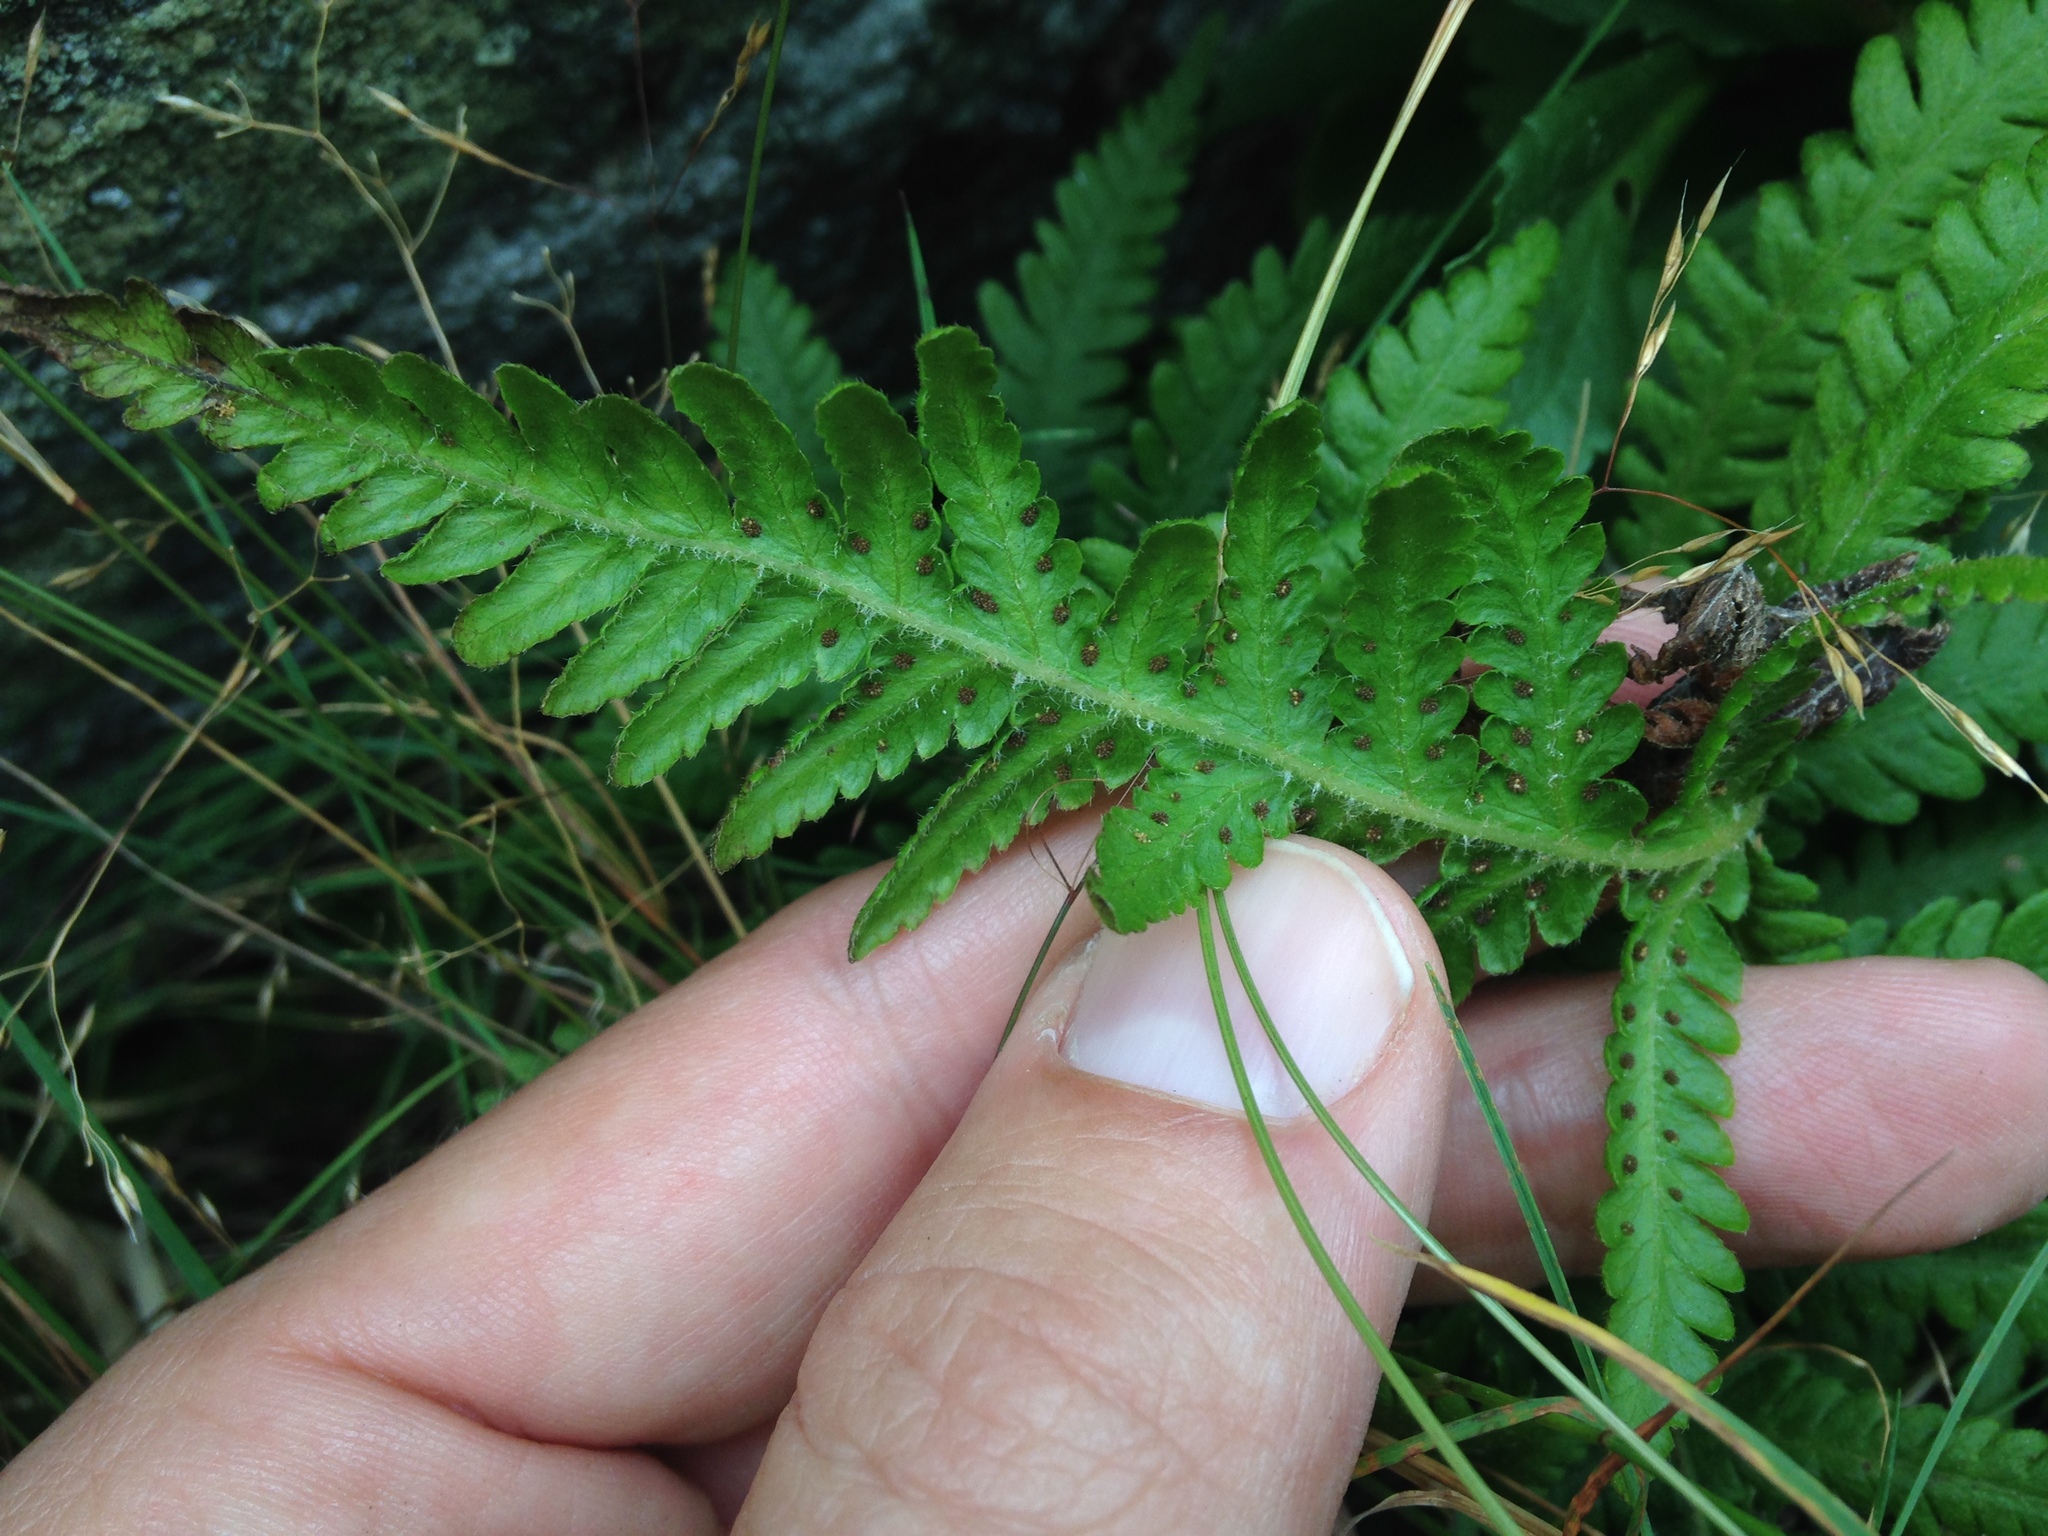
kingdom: Plantae
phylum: Tracheophyta
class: Polypodiopsida
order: Polypodiales
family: Thelypteridaceae
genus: Phegopteris
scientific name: Phegopteris connectilis
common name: Beech fern
